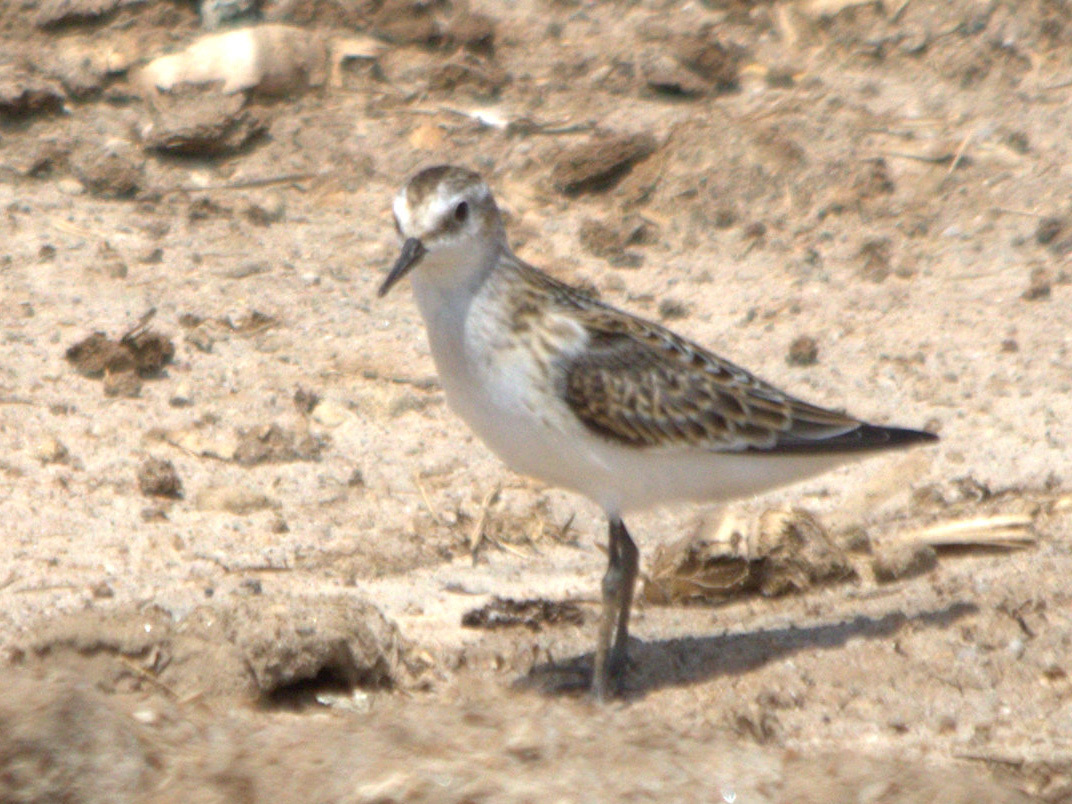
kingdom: Animalia
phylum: Chordata
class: Aves
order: Charadriiformes
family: Scolopacidae
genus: Calidris
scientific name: Calidris minuta
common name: Little stint
